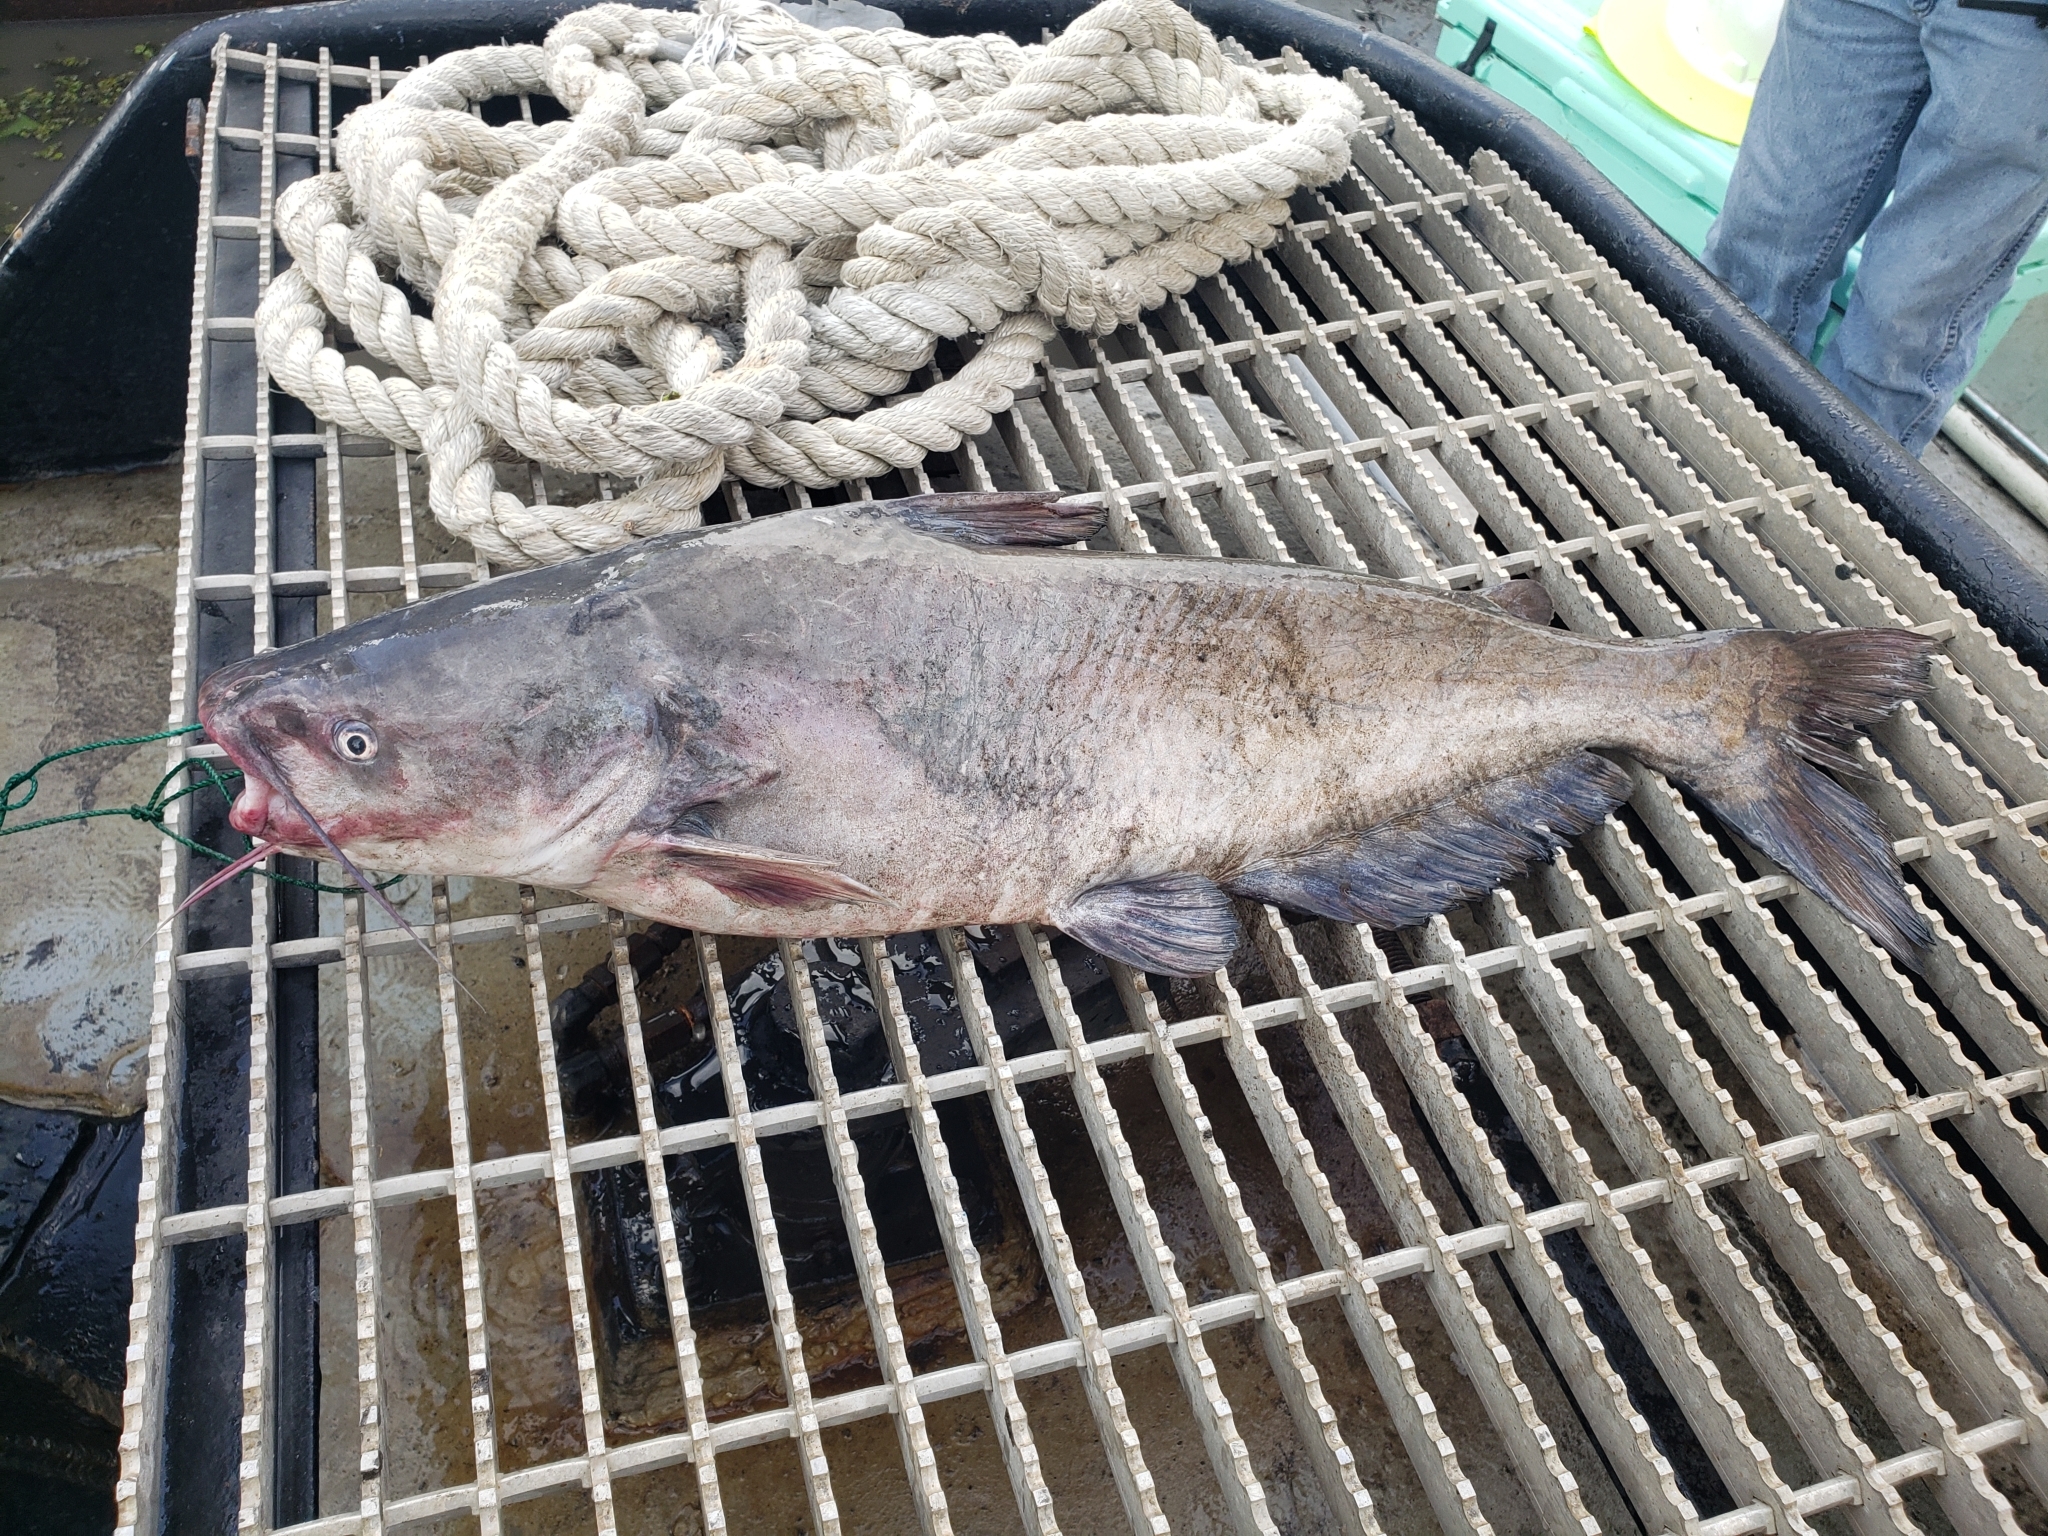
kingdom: Animalia
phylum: Chordata
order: Siluriformes
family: Ictaluridae
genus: Ictalurus
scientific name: Ictalurus furcatus
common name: Blue catfish
